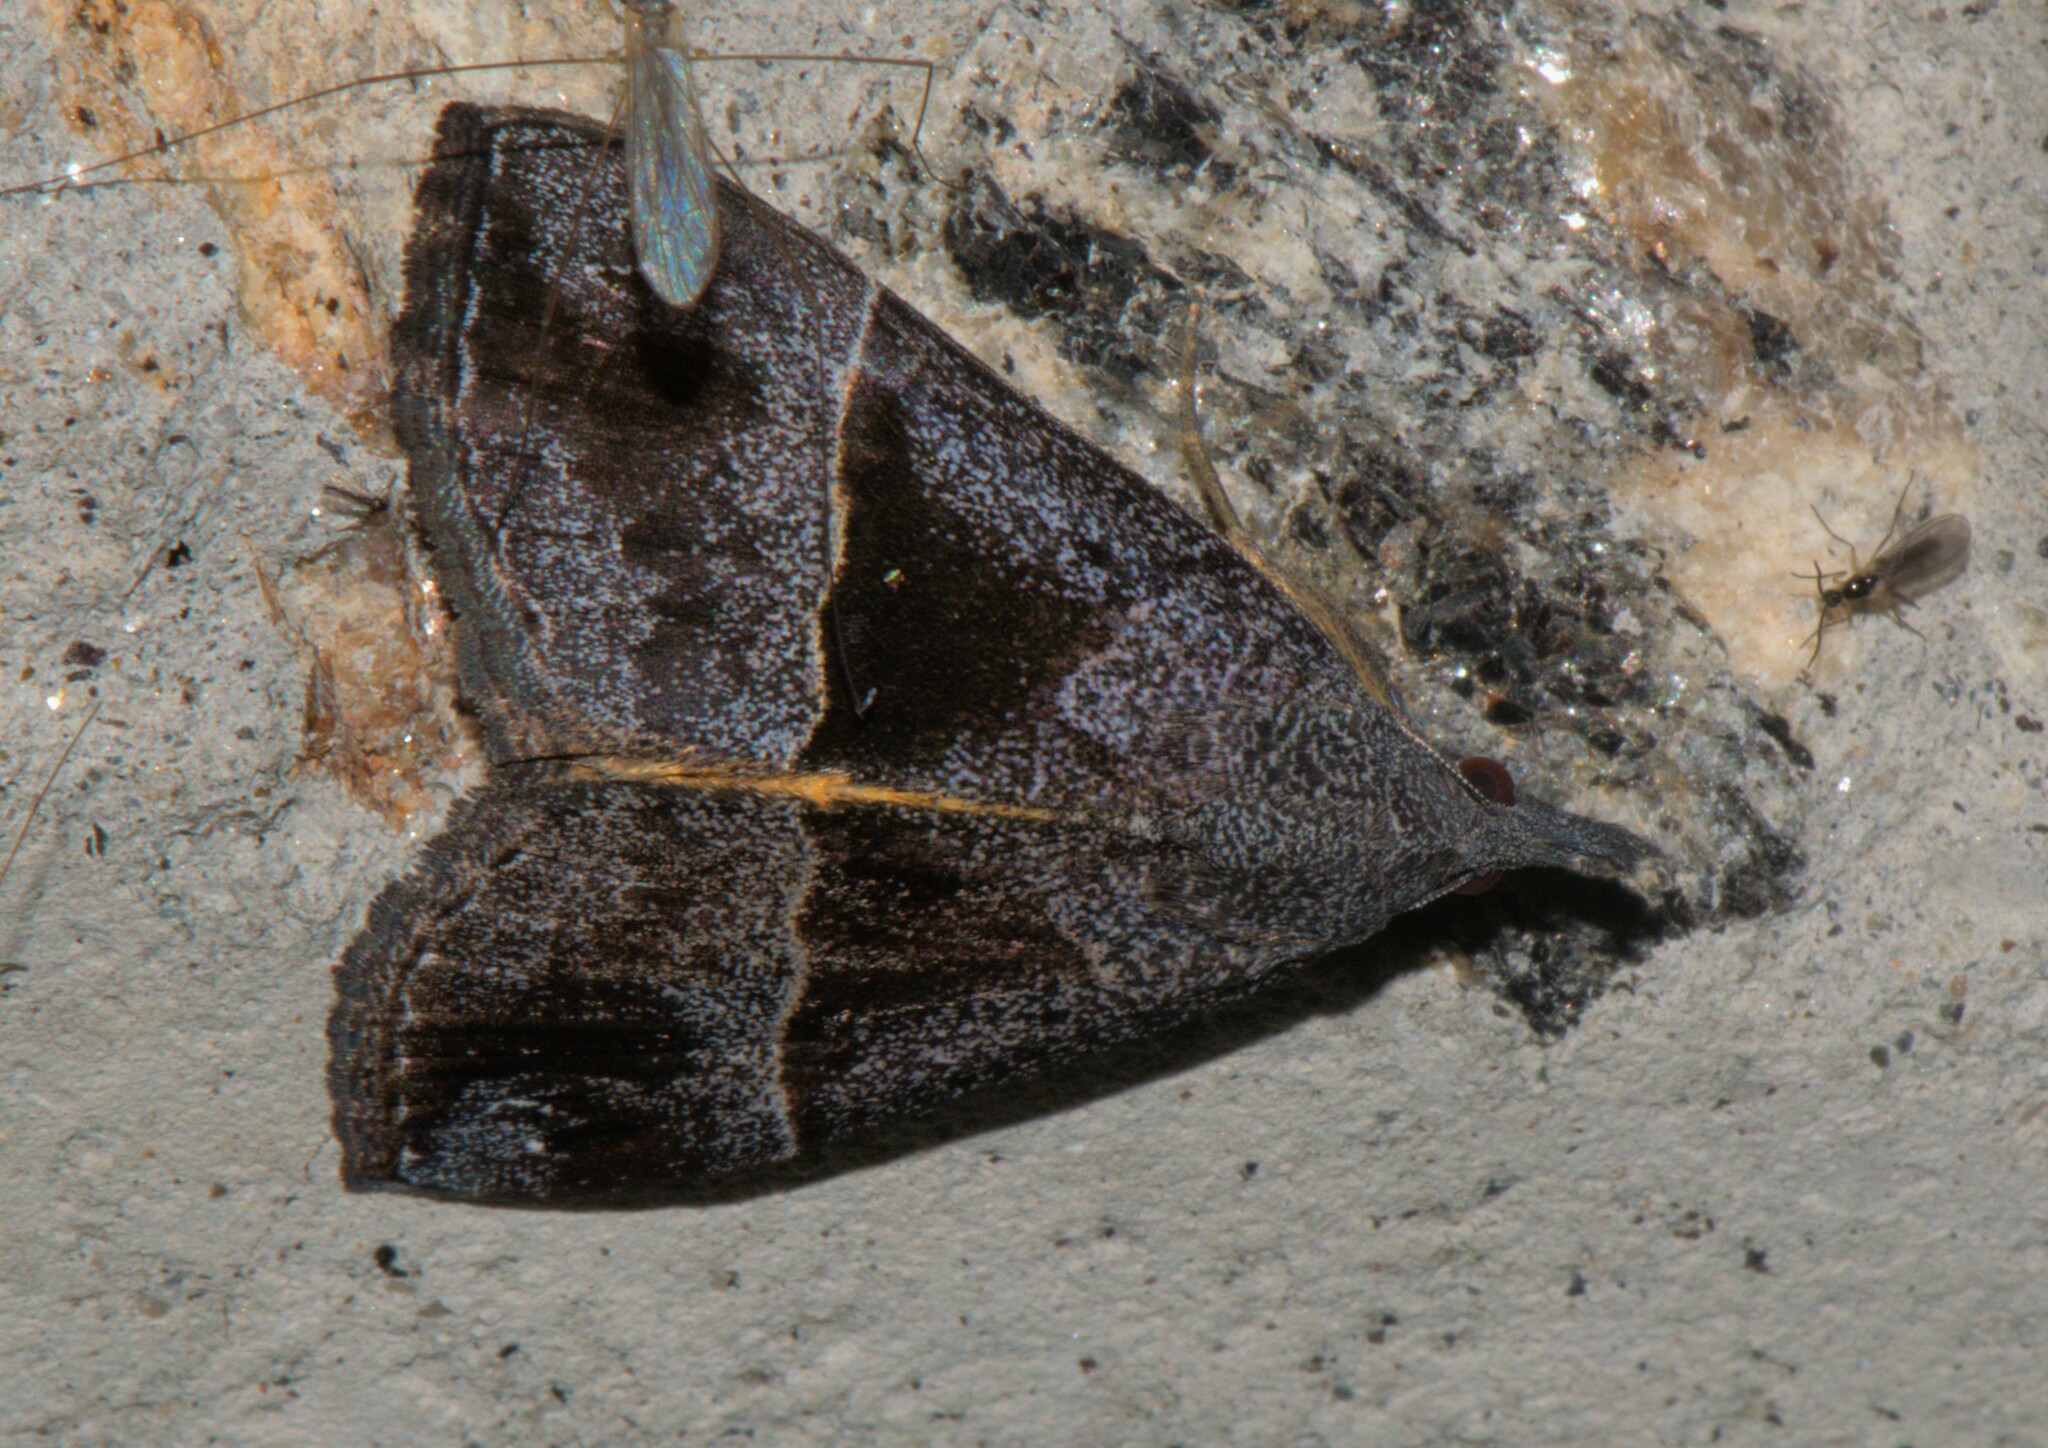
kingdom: Animalia
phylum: Arthropoda
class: Insecta
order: Lepidoptera
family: Erebidae
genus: Hypena
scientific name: Hypena amica
